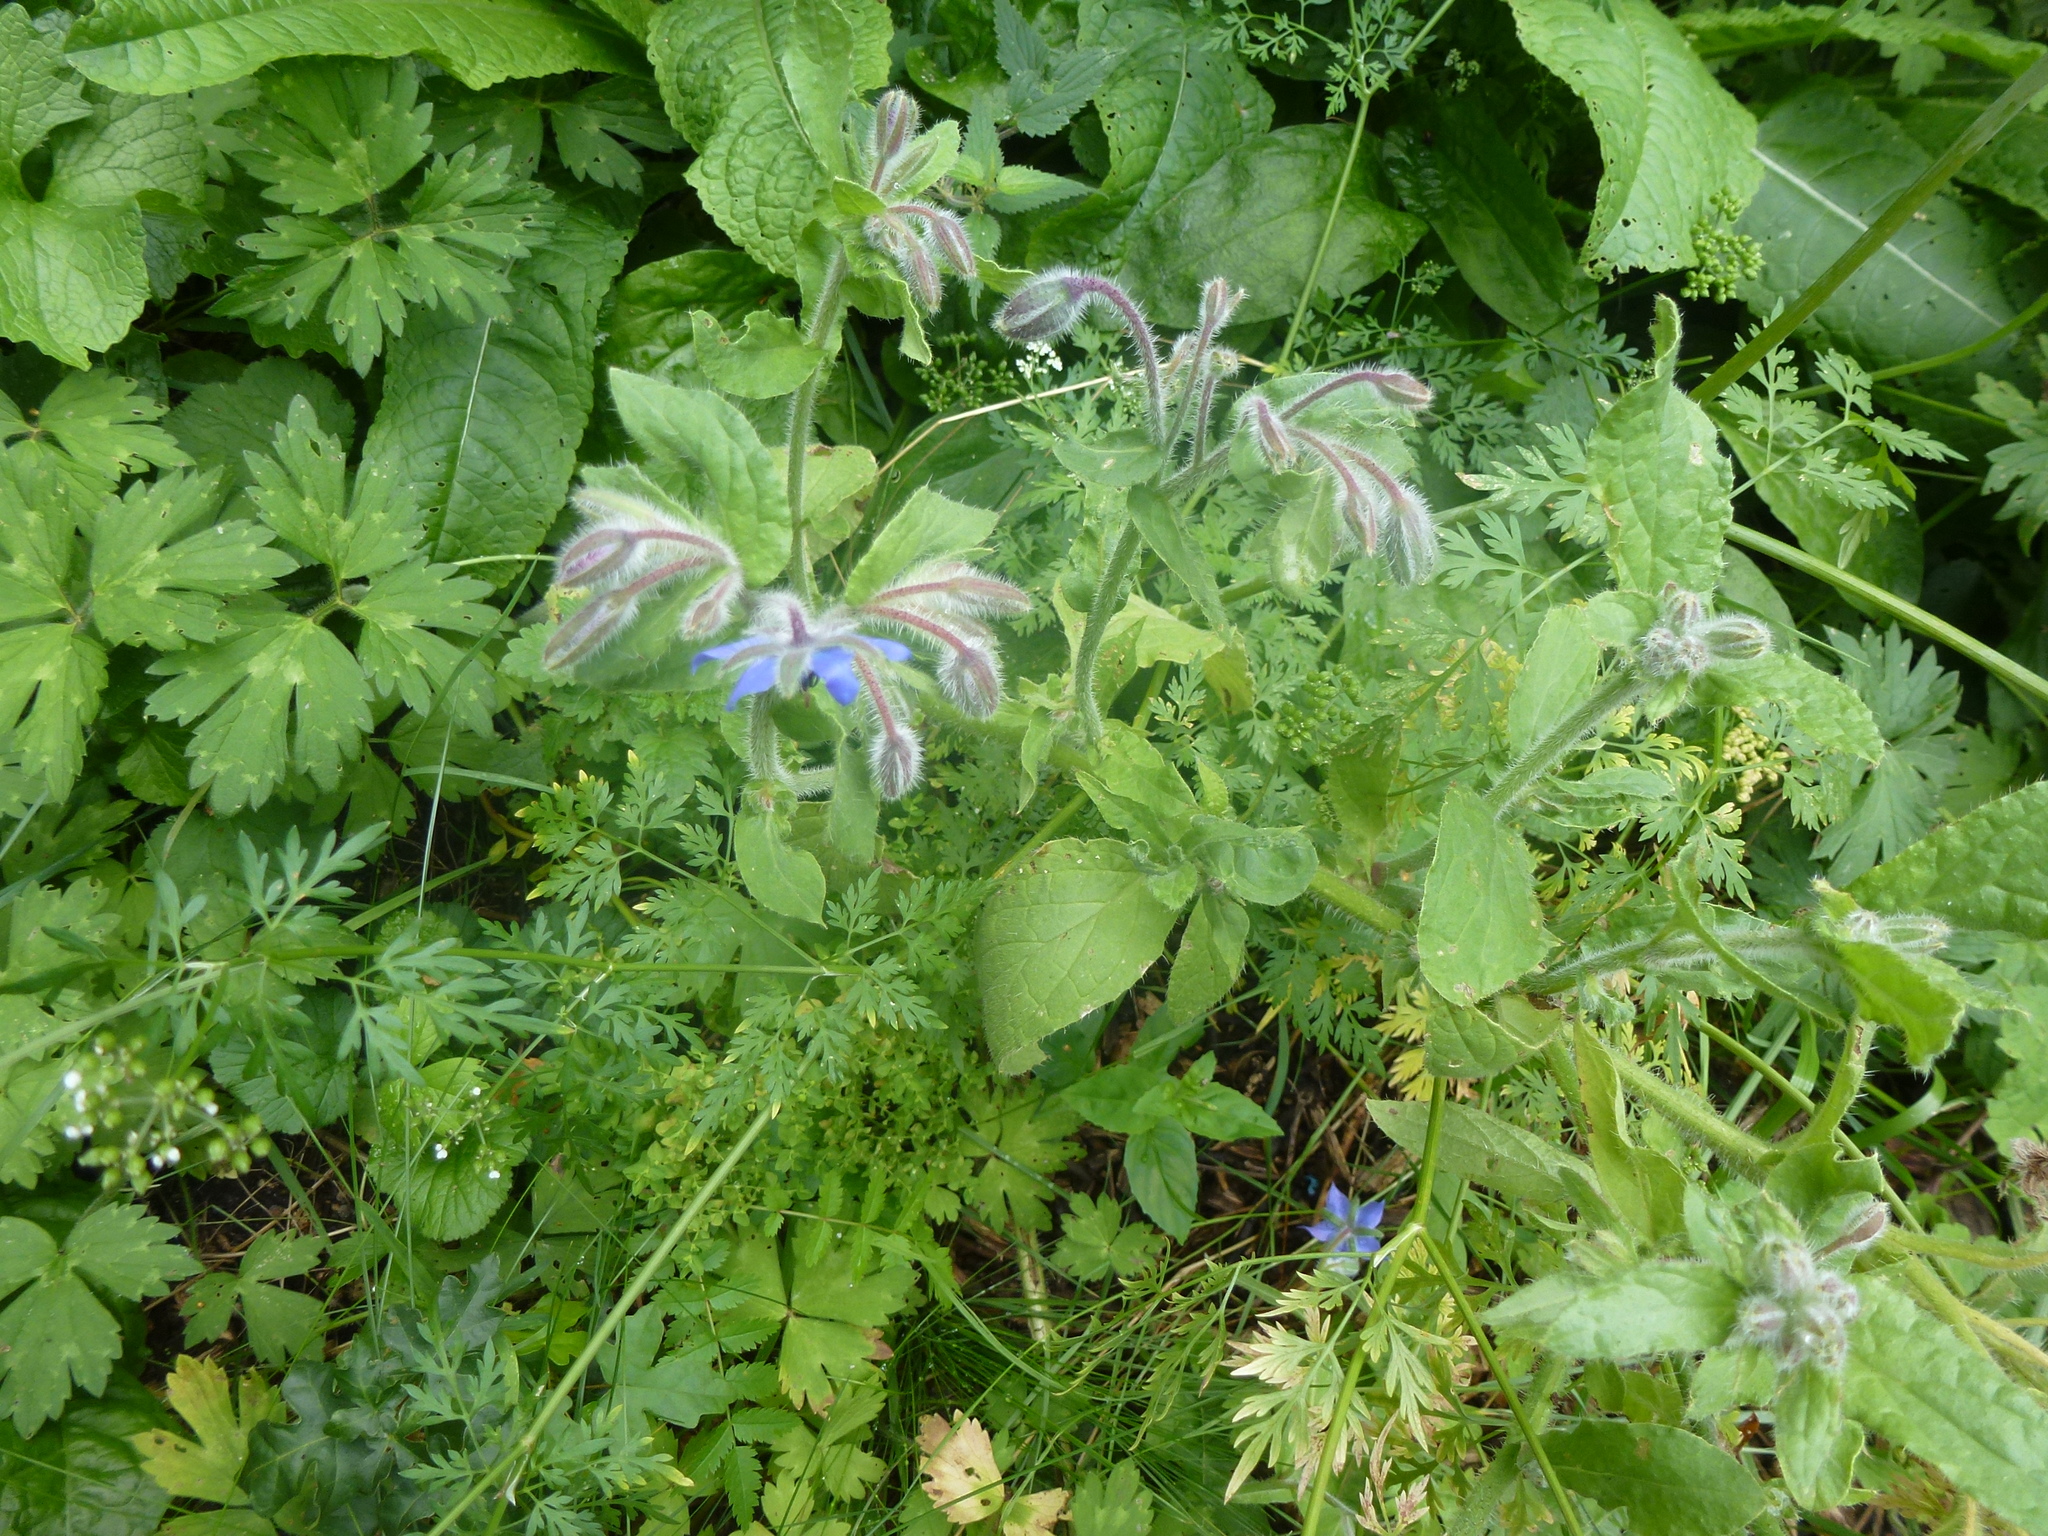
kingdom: Plantae
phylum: Tracheophyta
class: Magnoliopsida
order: Boraginales
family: Boraginaceae
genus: Borago
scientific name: Borago officinalis
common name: Borage
